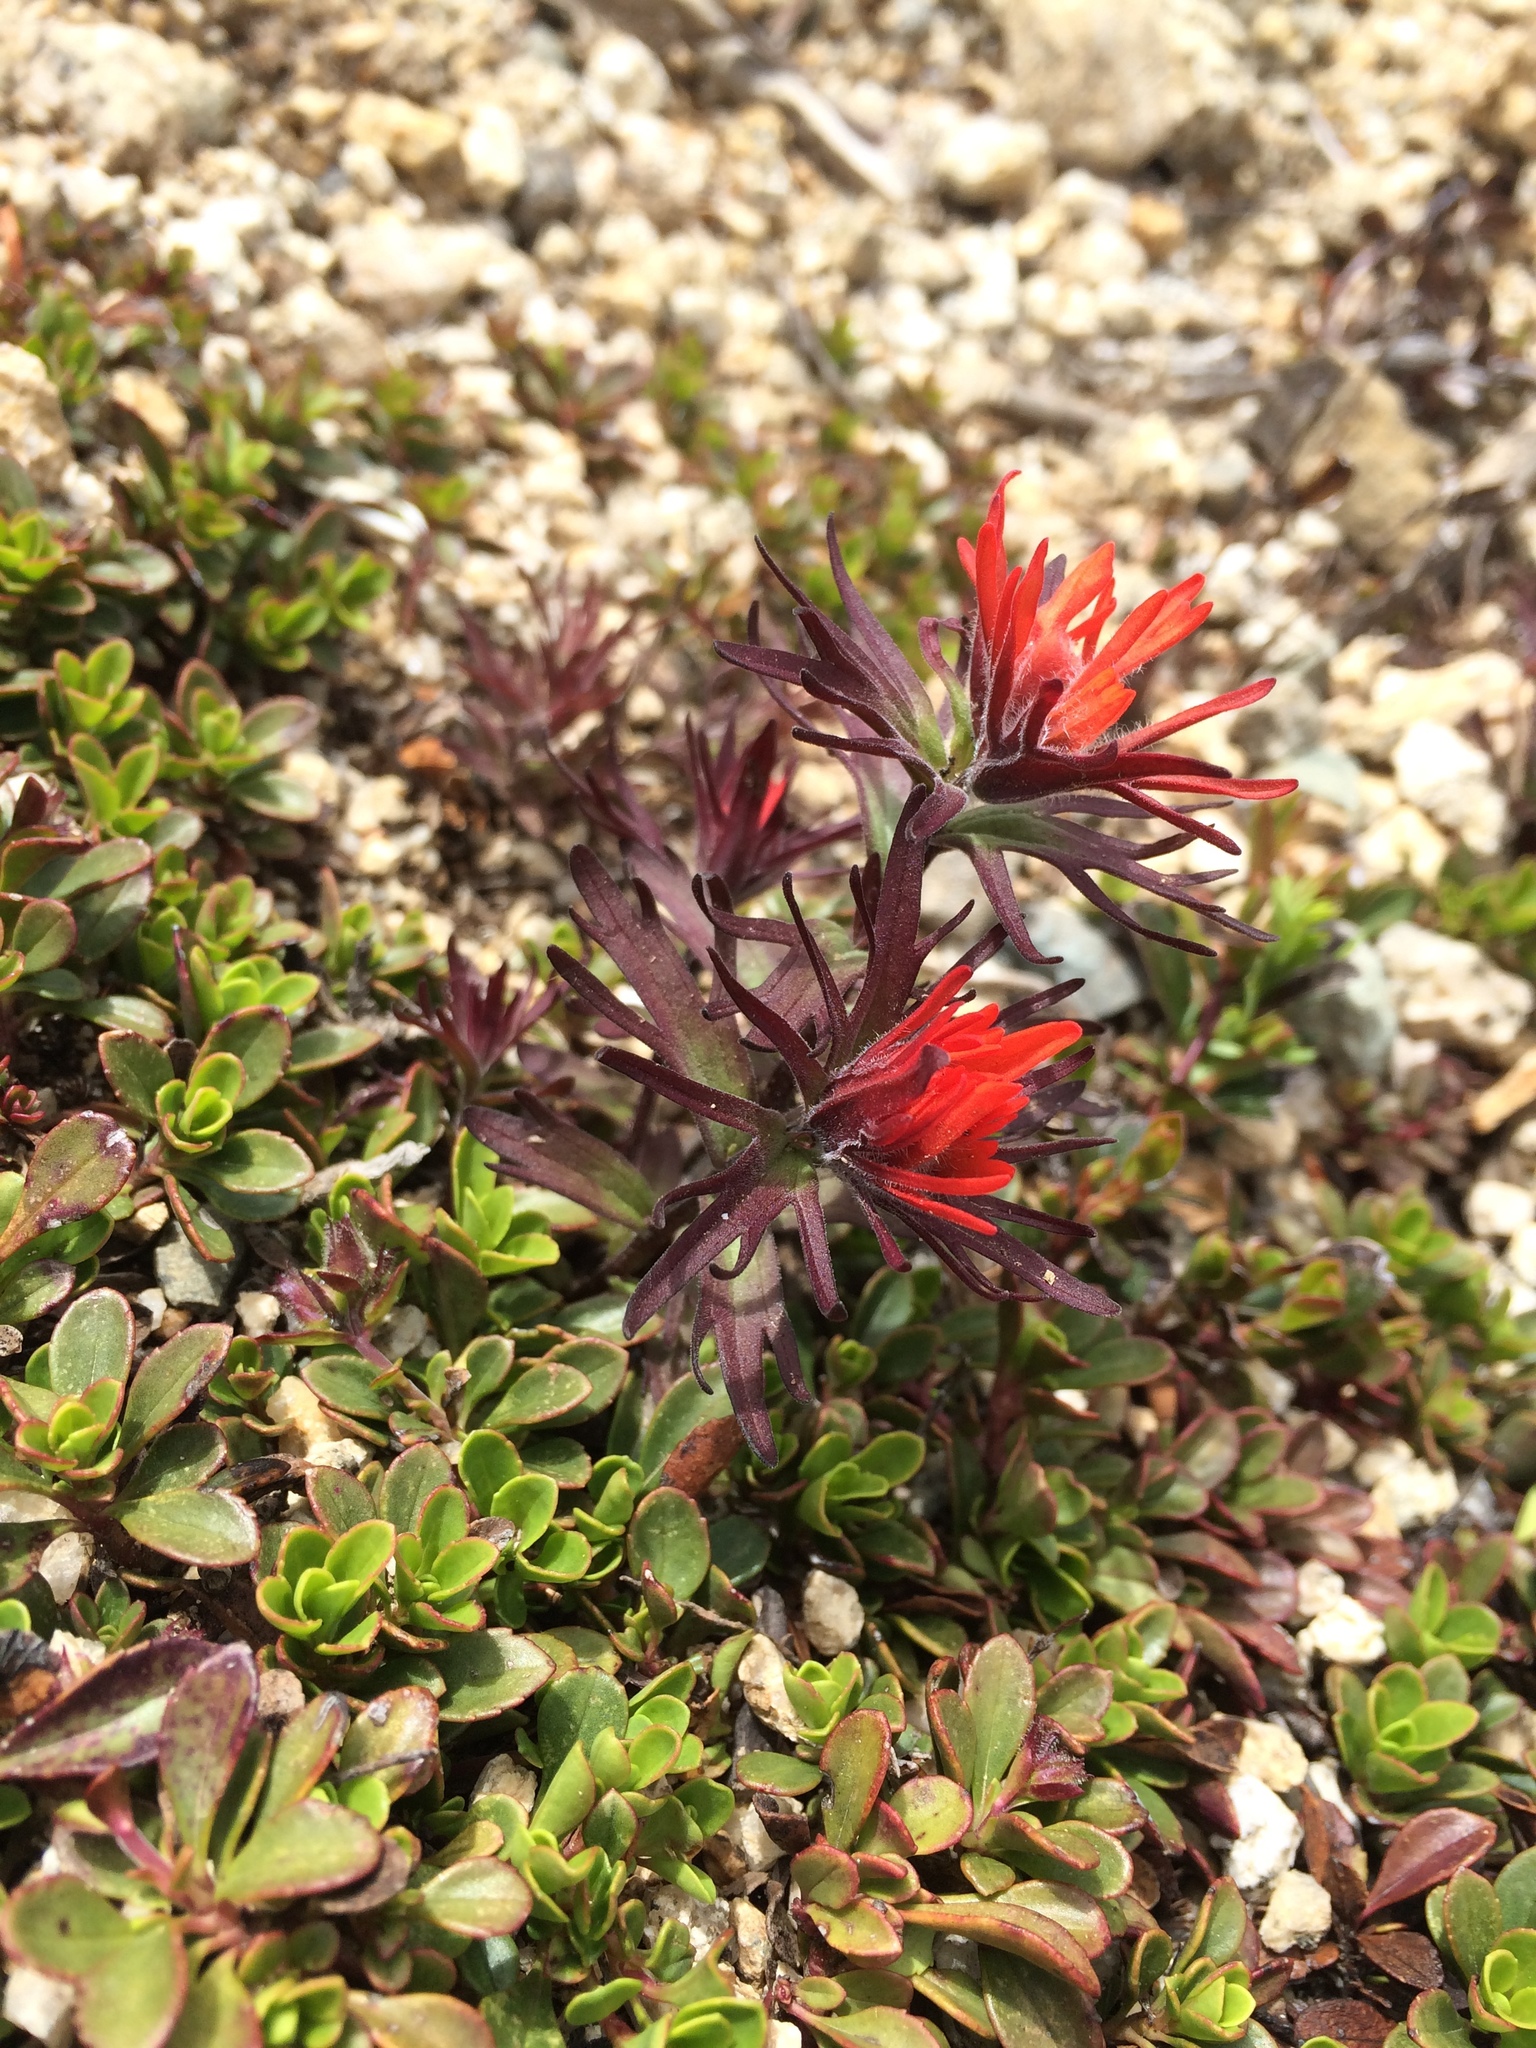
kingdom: Plantae
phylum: Tracheophyta
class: Magnoliopsida
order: Lamiales
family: Orobanchaceae
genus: Castilleja
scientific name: Castilleja rupicola
